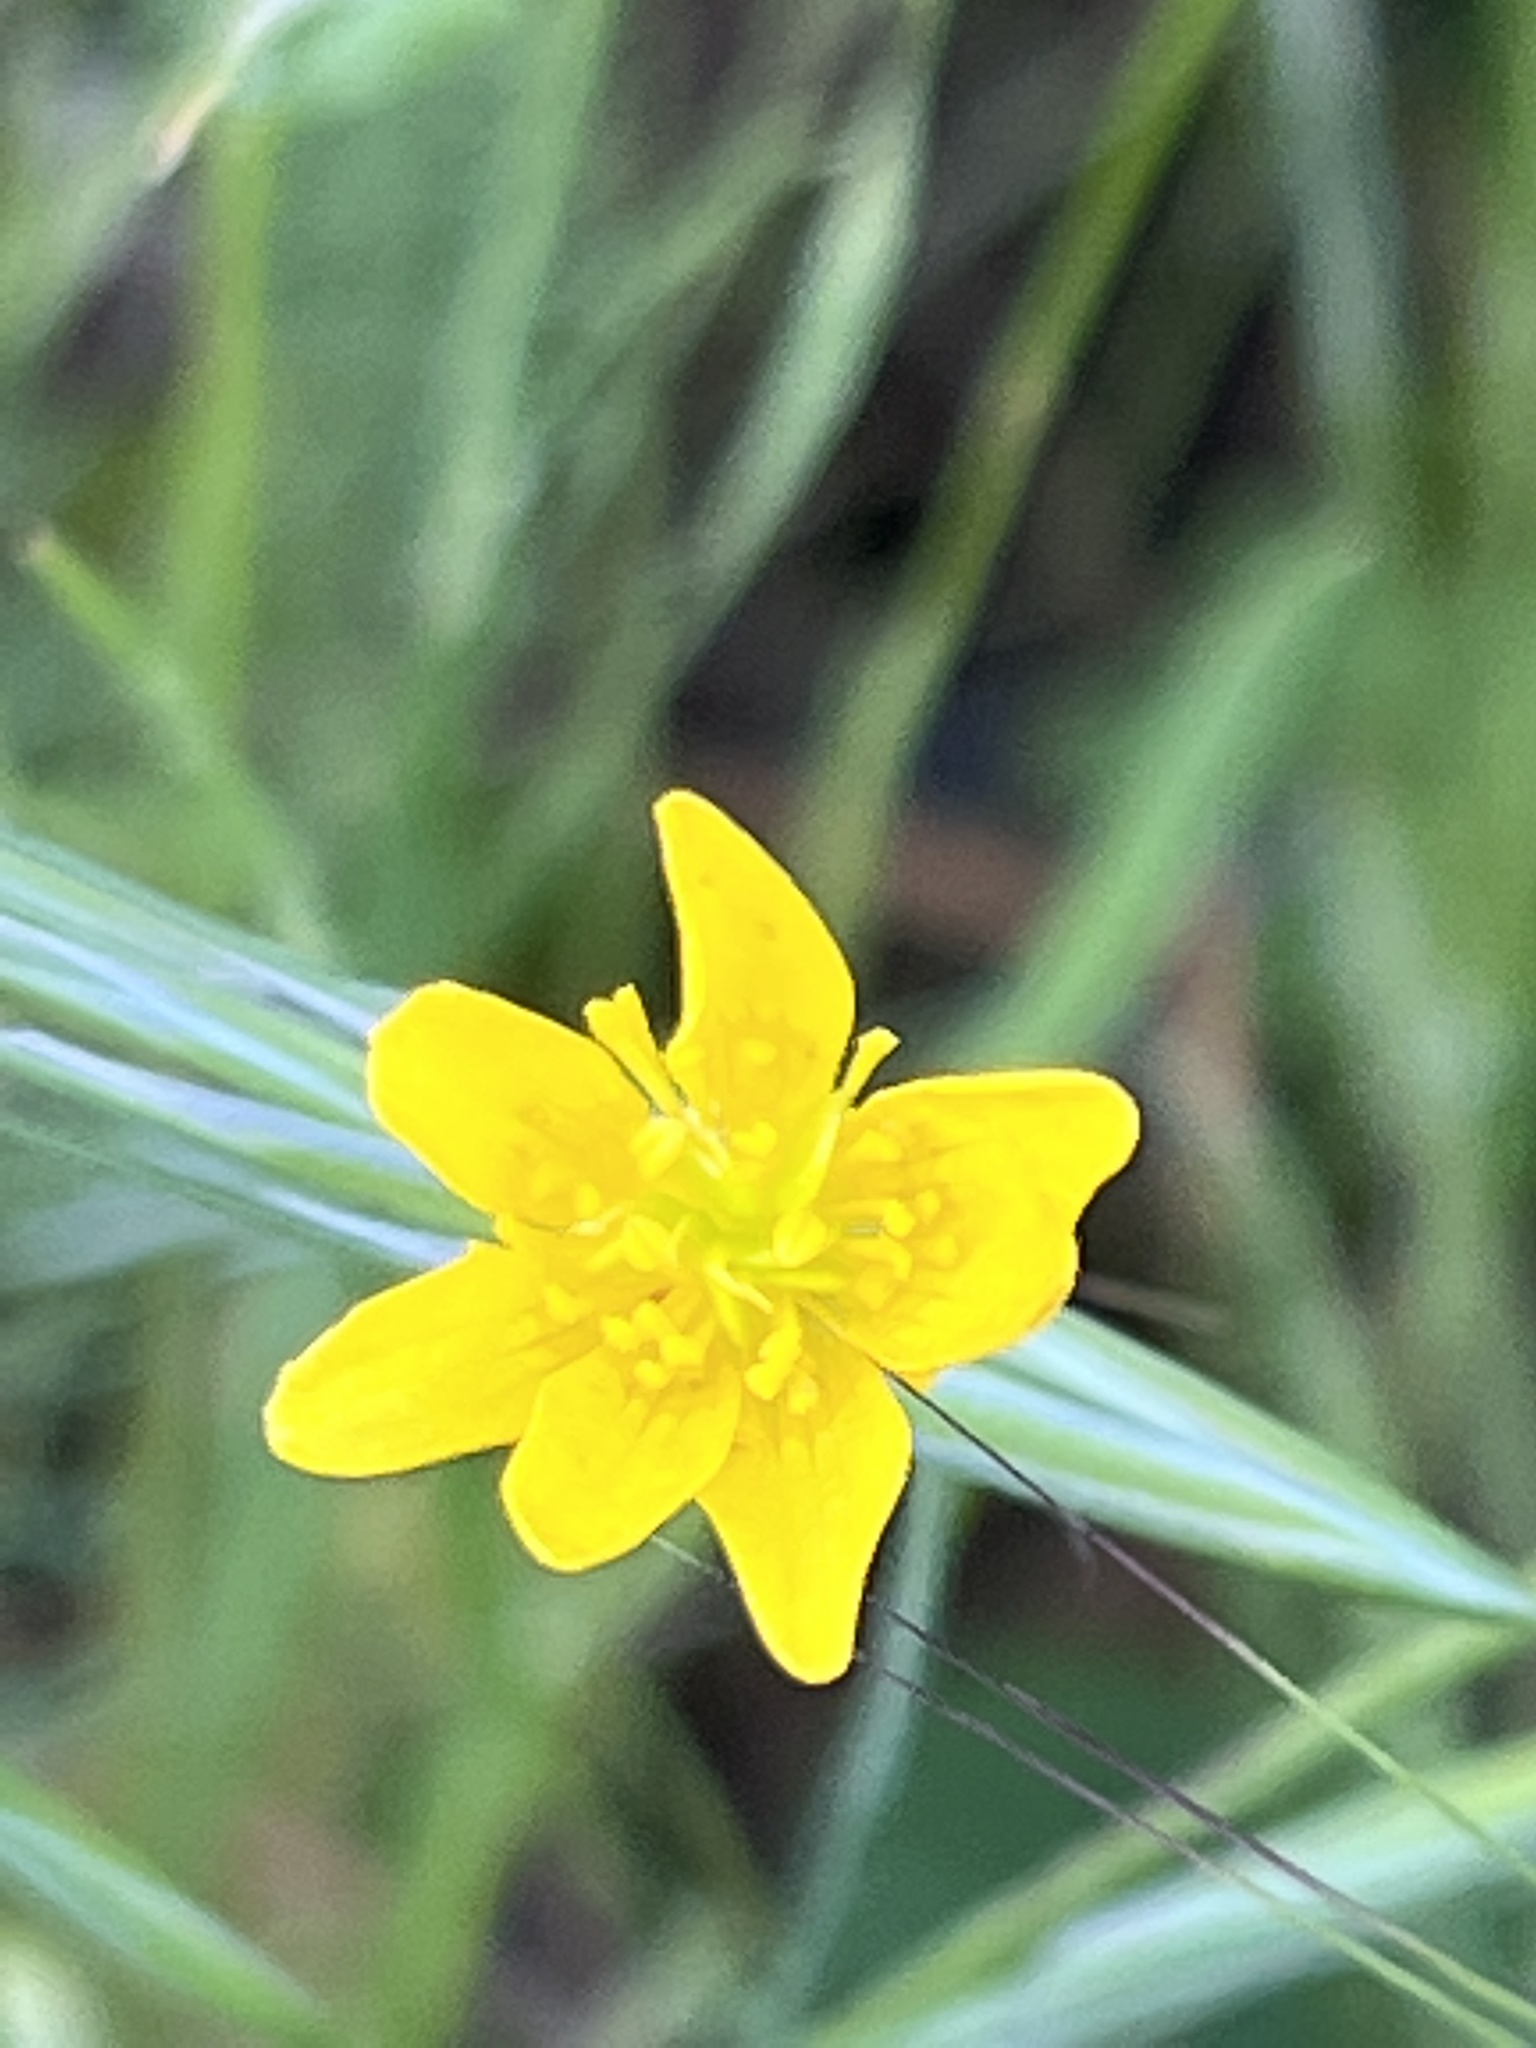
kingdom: Plantae
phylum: Tracheophyta
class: Magnoliopsida
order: Ranunculales
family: Ranunculaceae
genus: Ranunculus
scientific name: Ranunculus occidentalis
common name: Western buttercup
